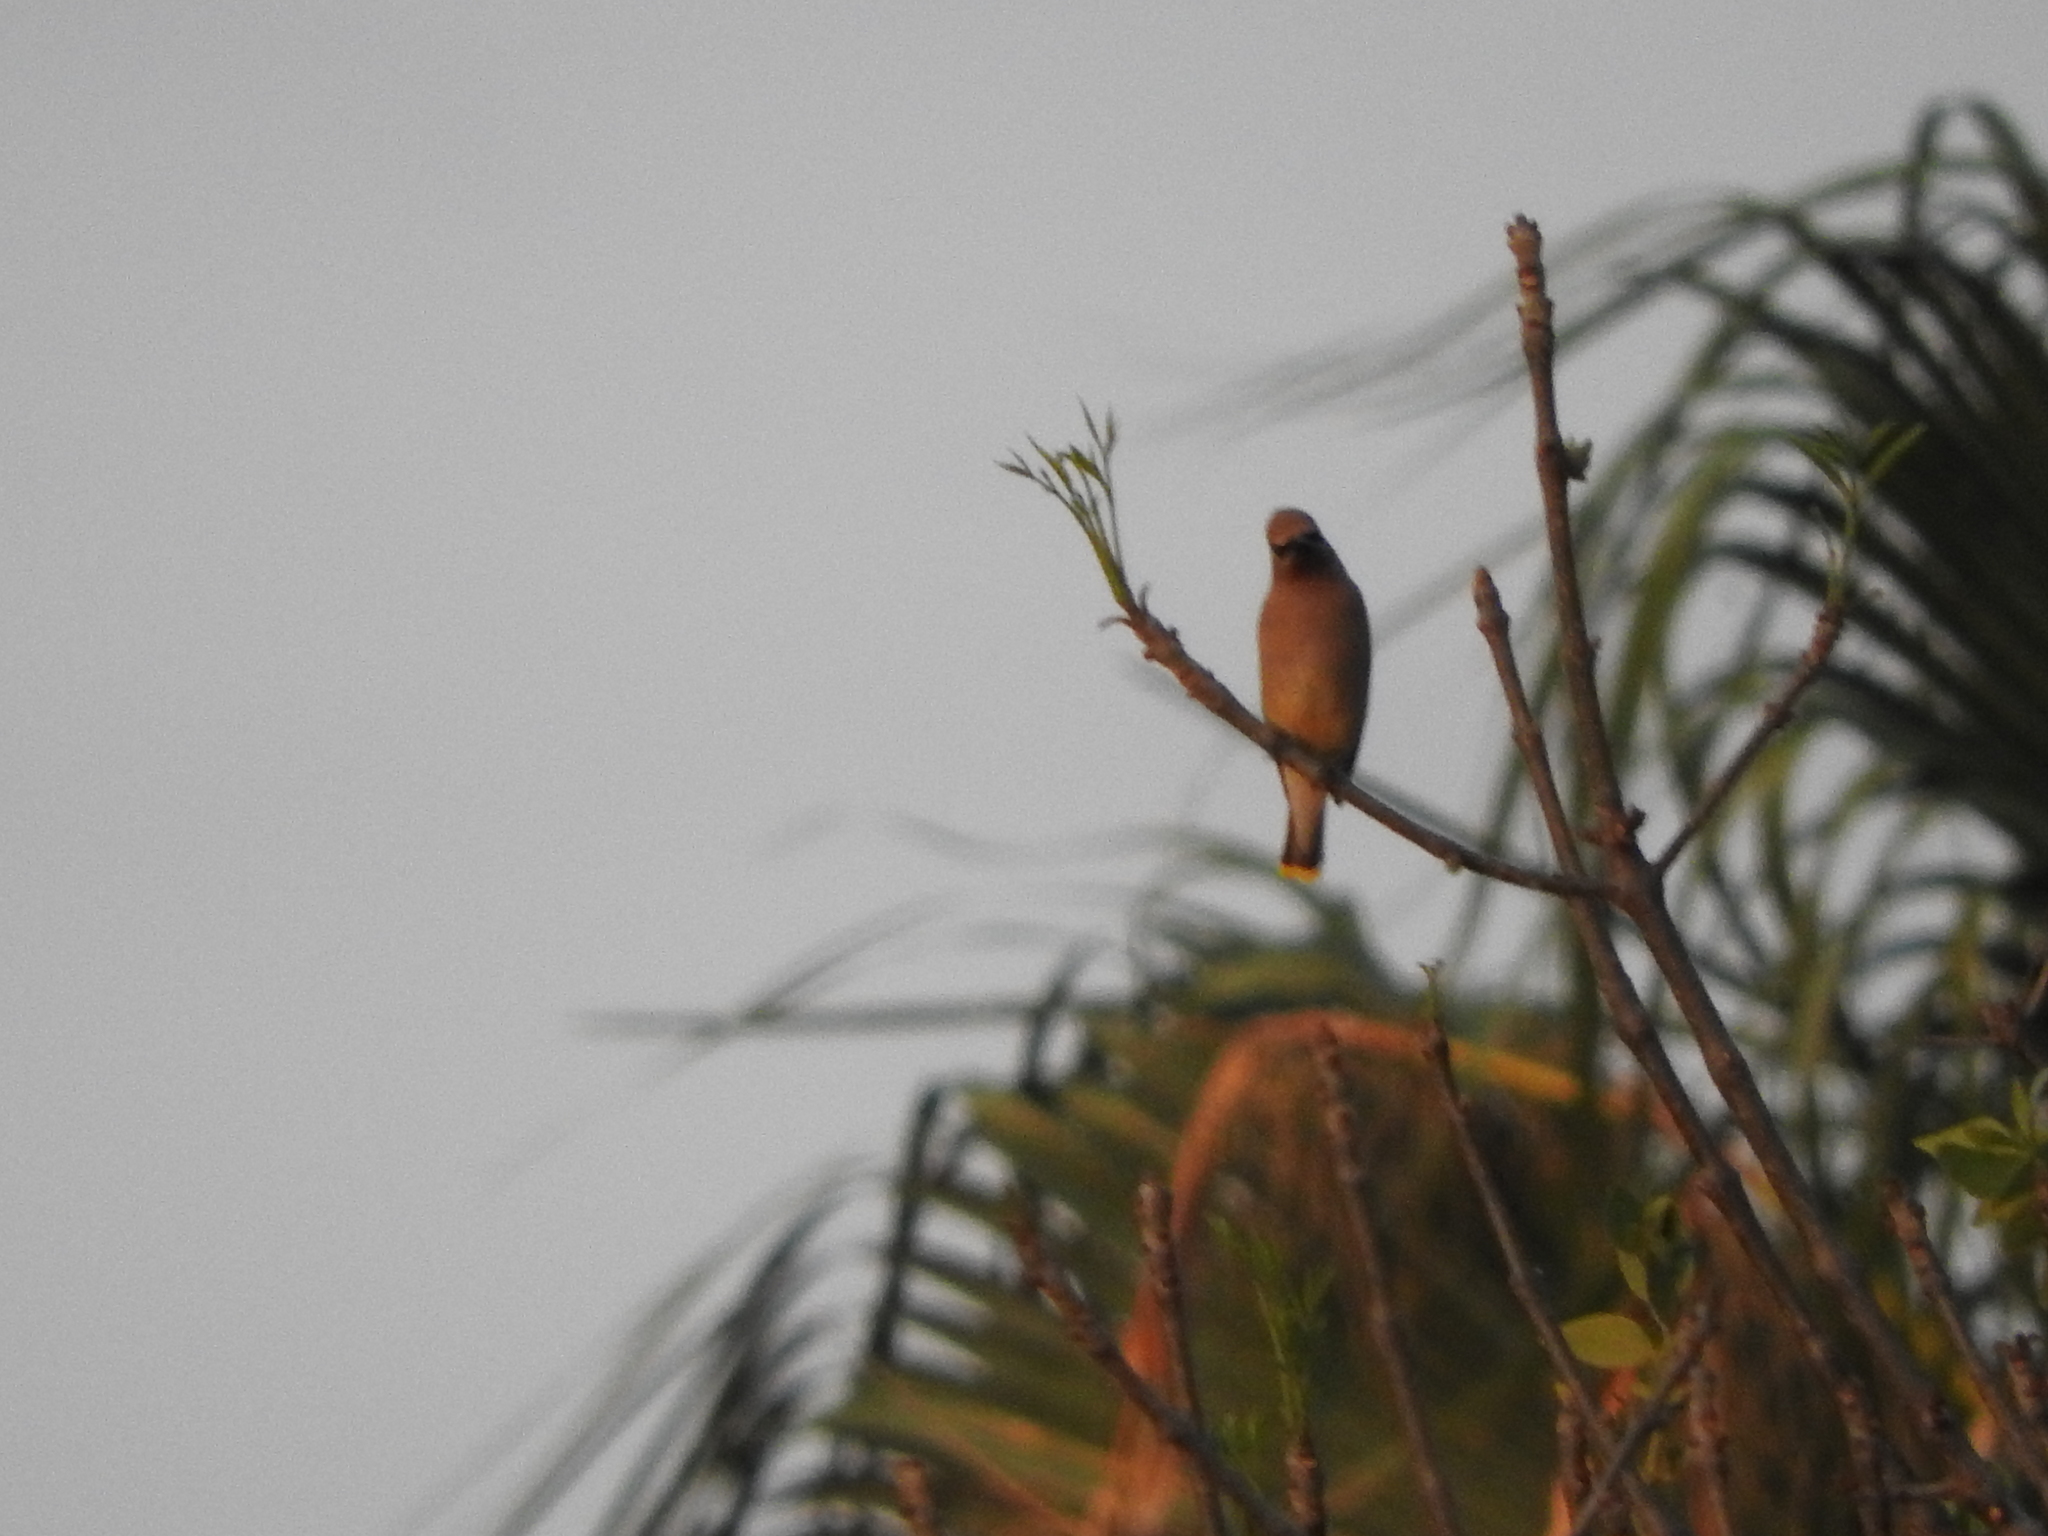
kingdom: Animalia
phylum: Chordata
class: Aves
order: Passeriformes
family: Bombycillidae
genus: Bombycilla
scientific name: Bombycilla cedrorum
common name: Cedar waxwing
